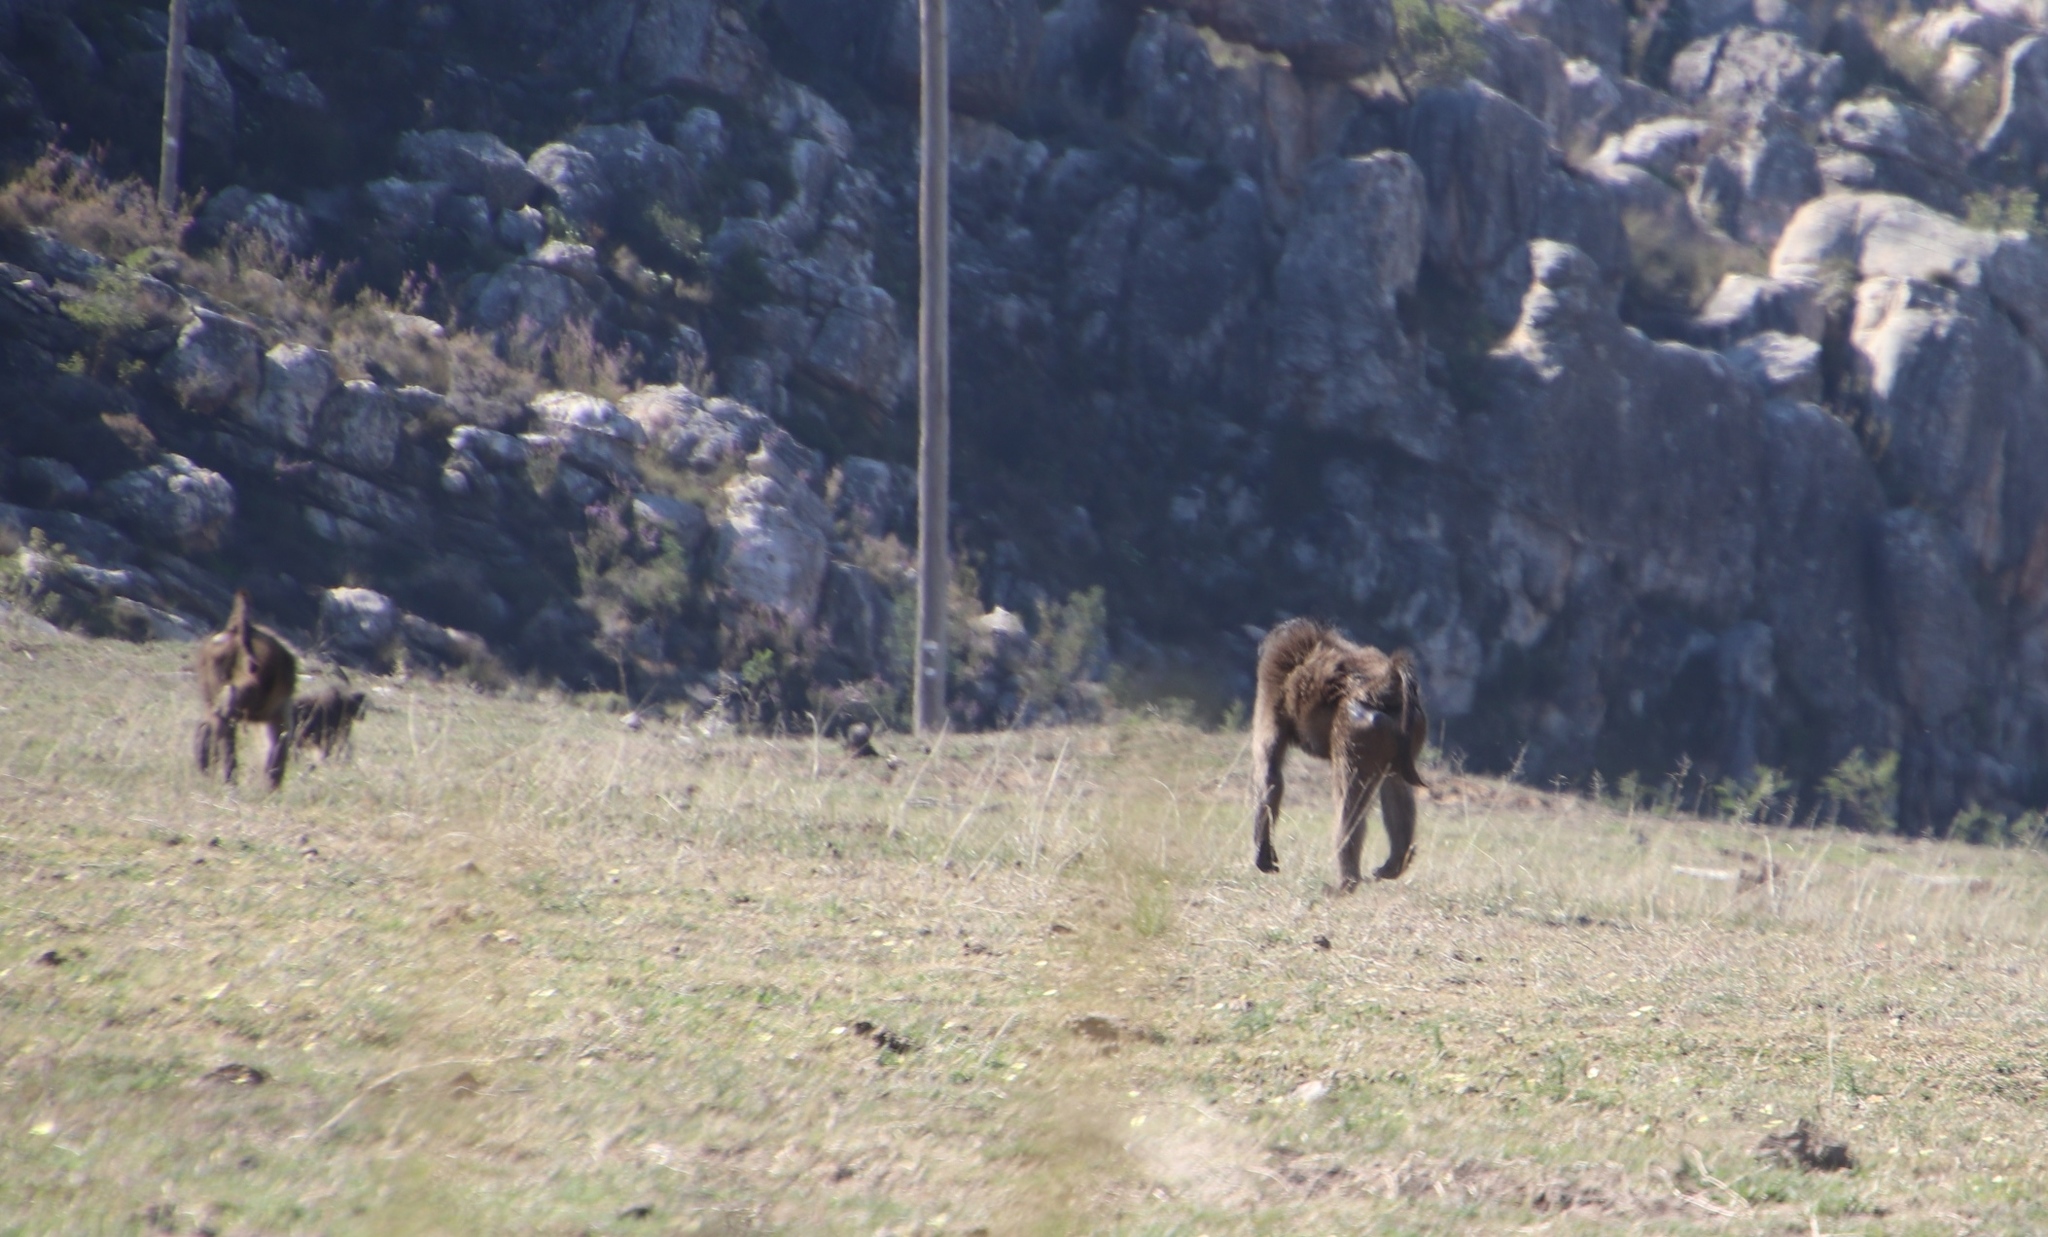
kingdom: Animalia
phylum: Chordata
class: Mammalia
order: Primates
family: Cercopithecidae
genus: Papio
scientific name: Papio ursinus
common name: Chacma baboon
